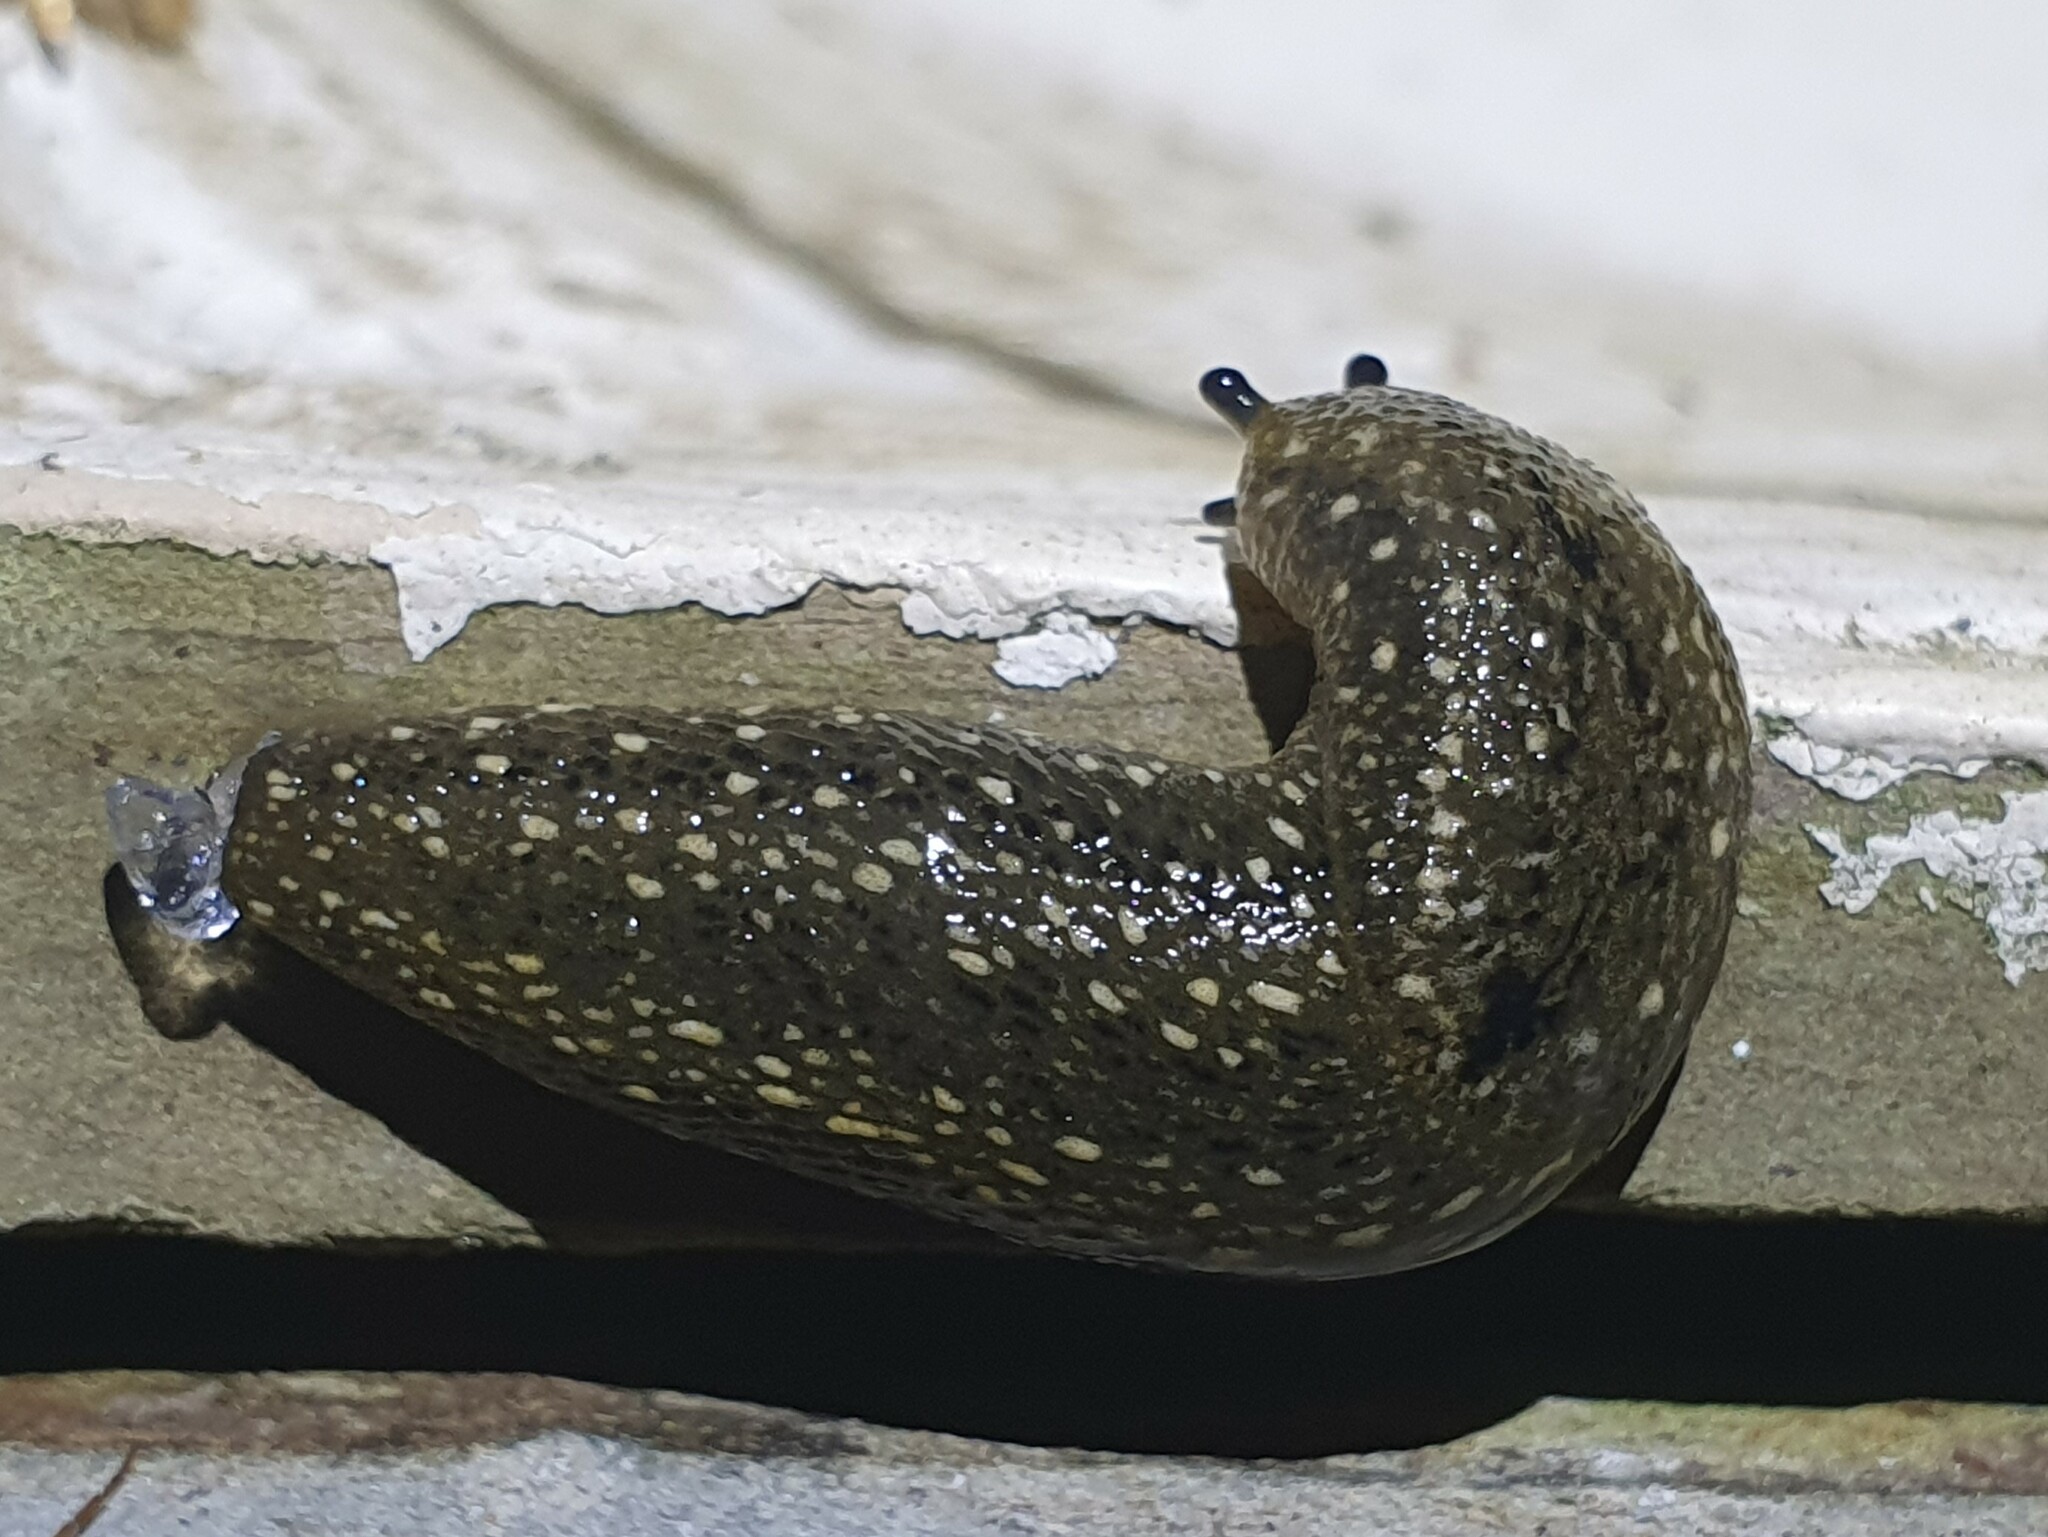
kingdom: Animalia
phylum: Mollusca
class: Gastropoda
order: Stylommatophora
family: Arionidae
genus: Geomalacus
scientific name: Geomalacus maculosus
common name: Kerry slug
